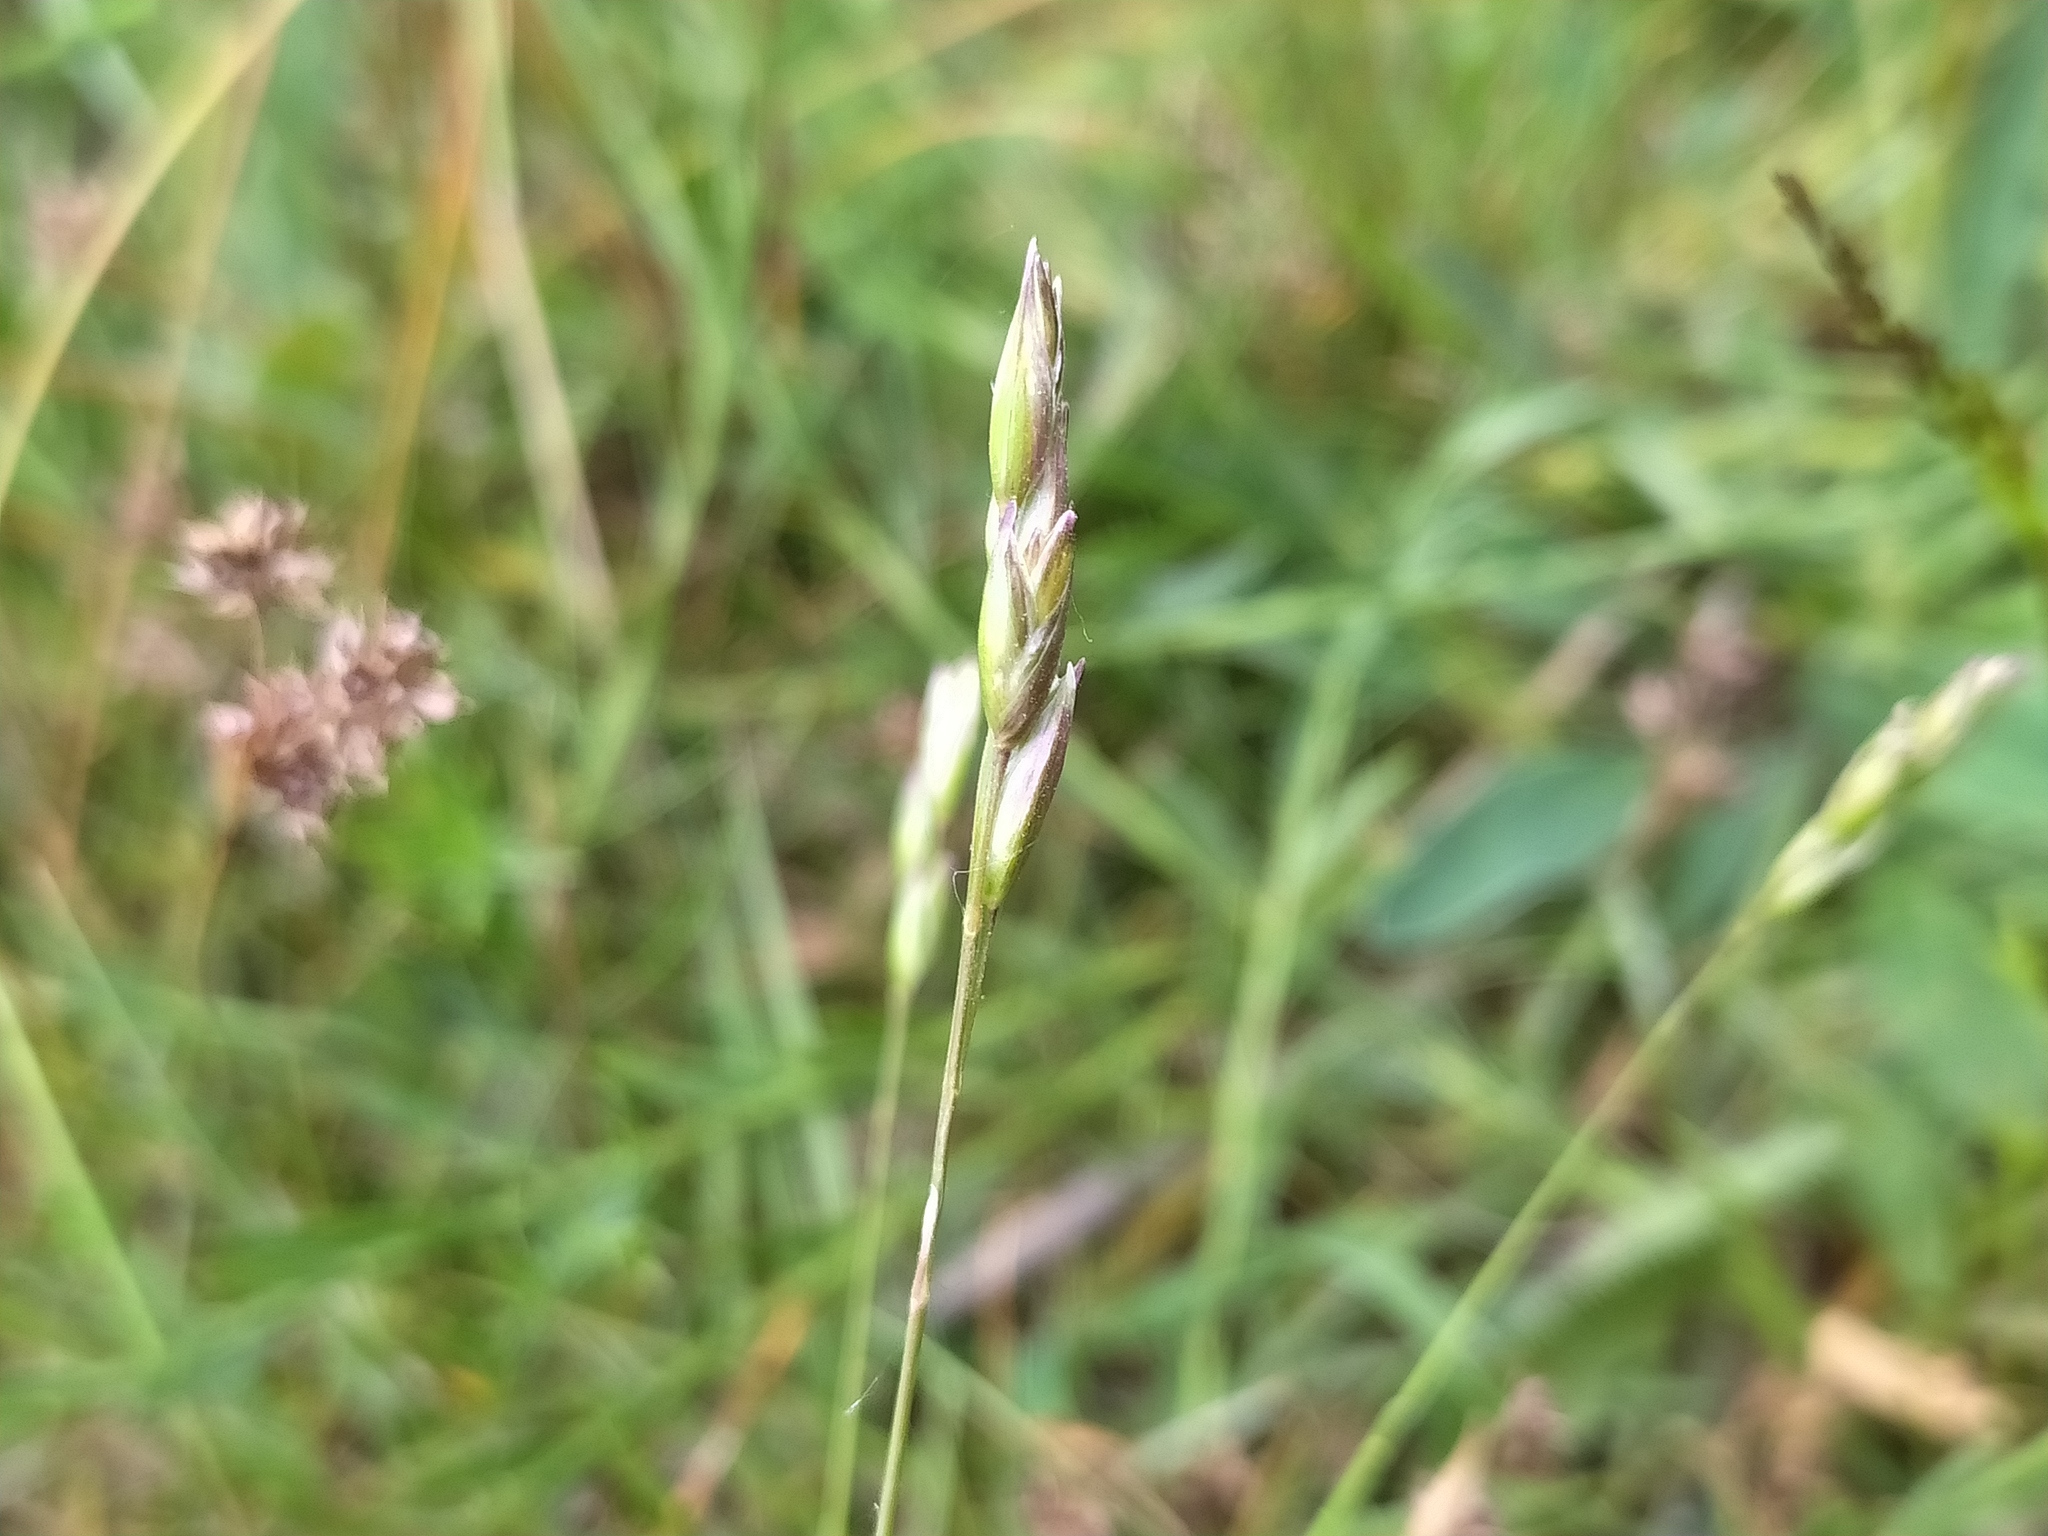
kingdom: Plantae
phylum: Tracheophyta
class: Liliopsida
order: Poales
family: Poaceae
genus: Danthonia
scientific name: Danthonia decumbens
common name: Common heathgrass
